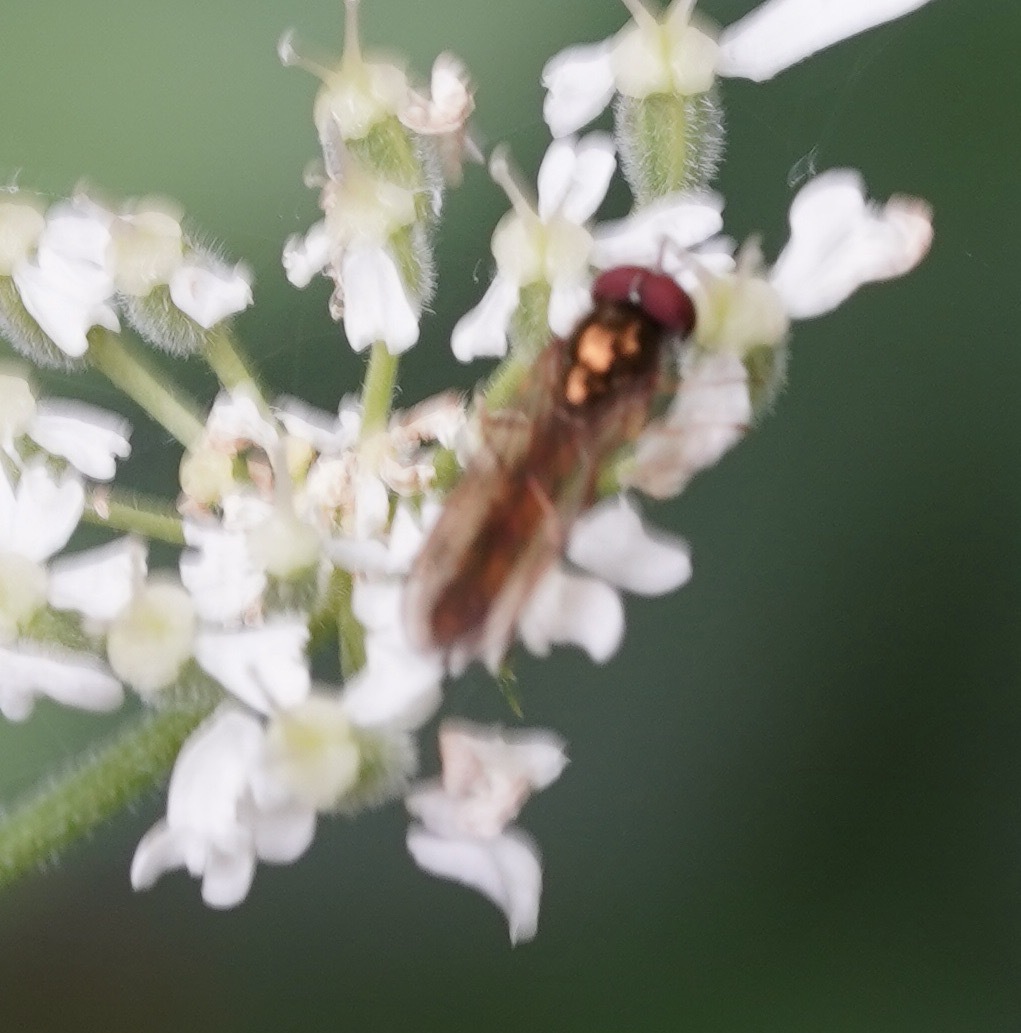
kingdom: Animalia
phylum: Arthropoda
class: Insecta
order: Diptera
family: Syrphidae
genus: Melanostoma
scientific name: Melanostoma scalare
